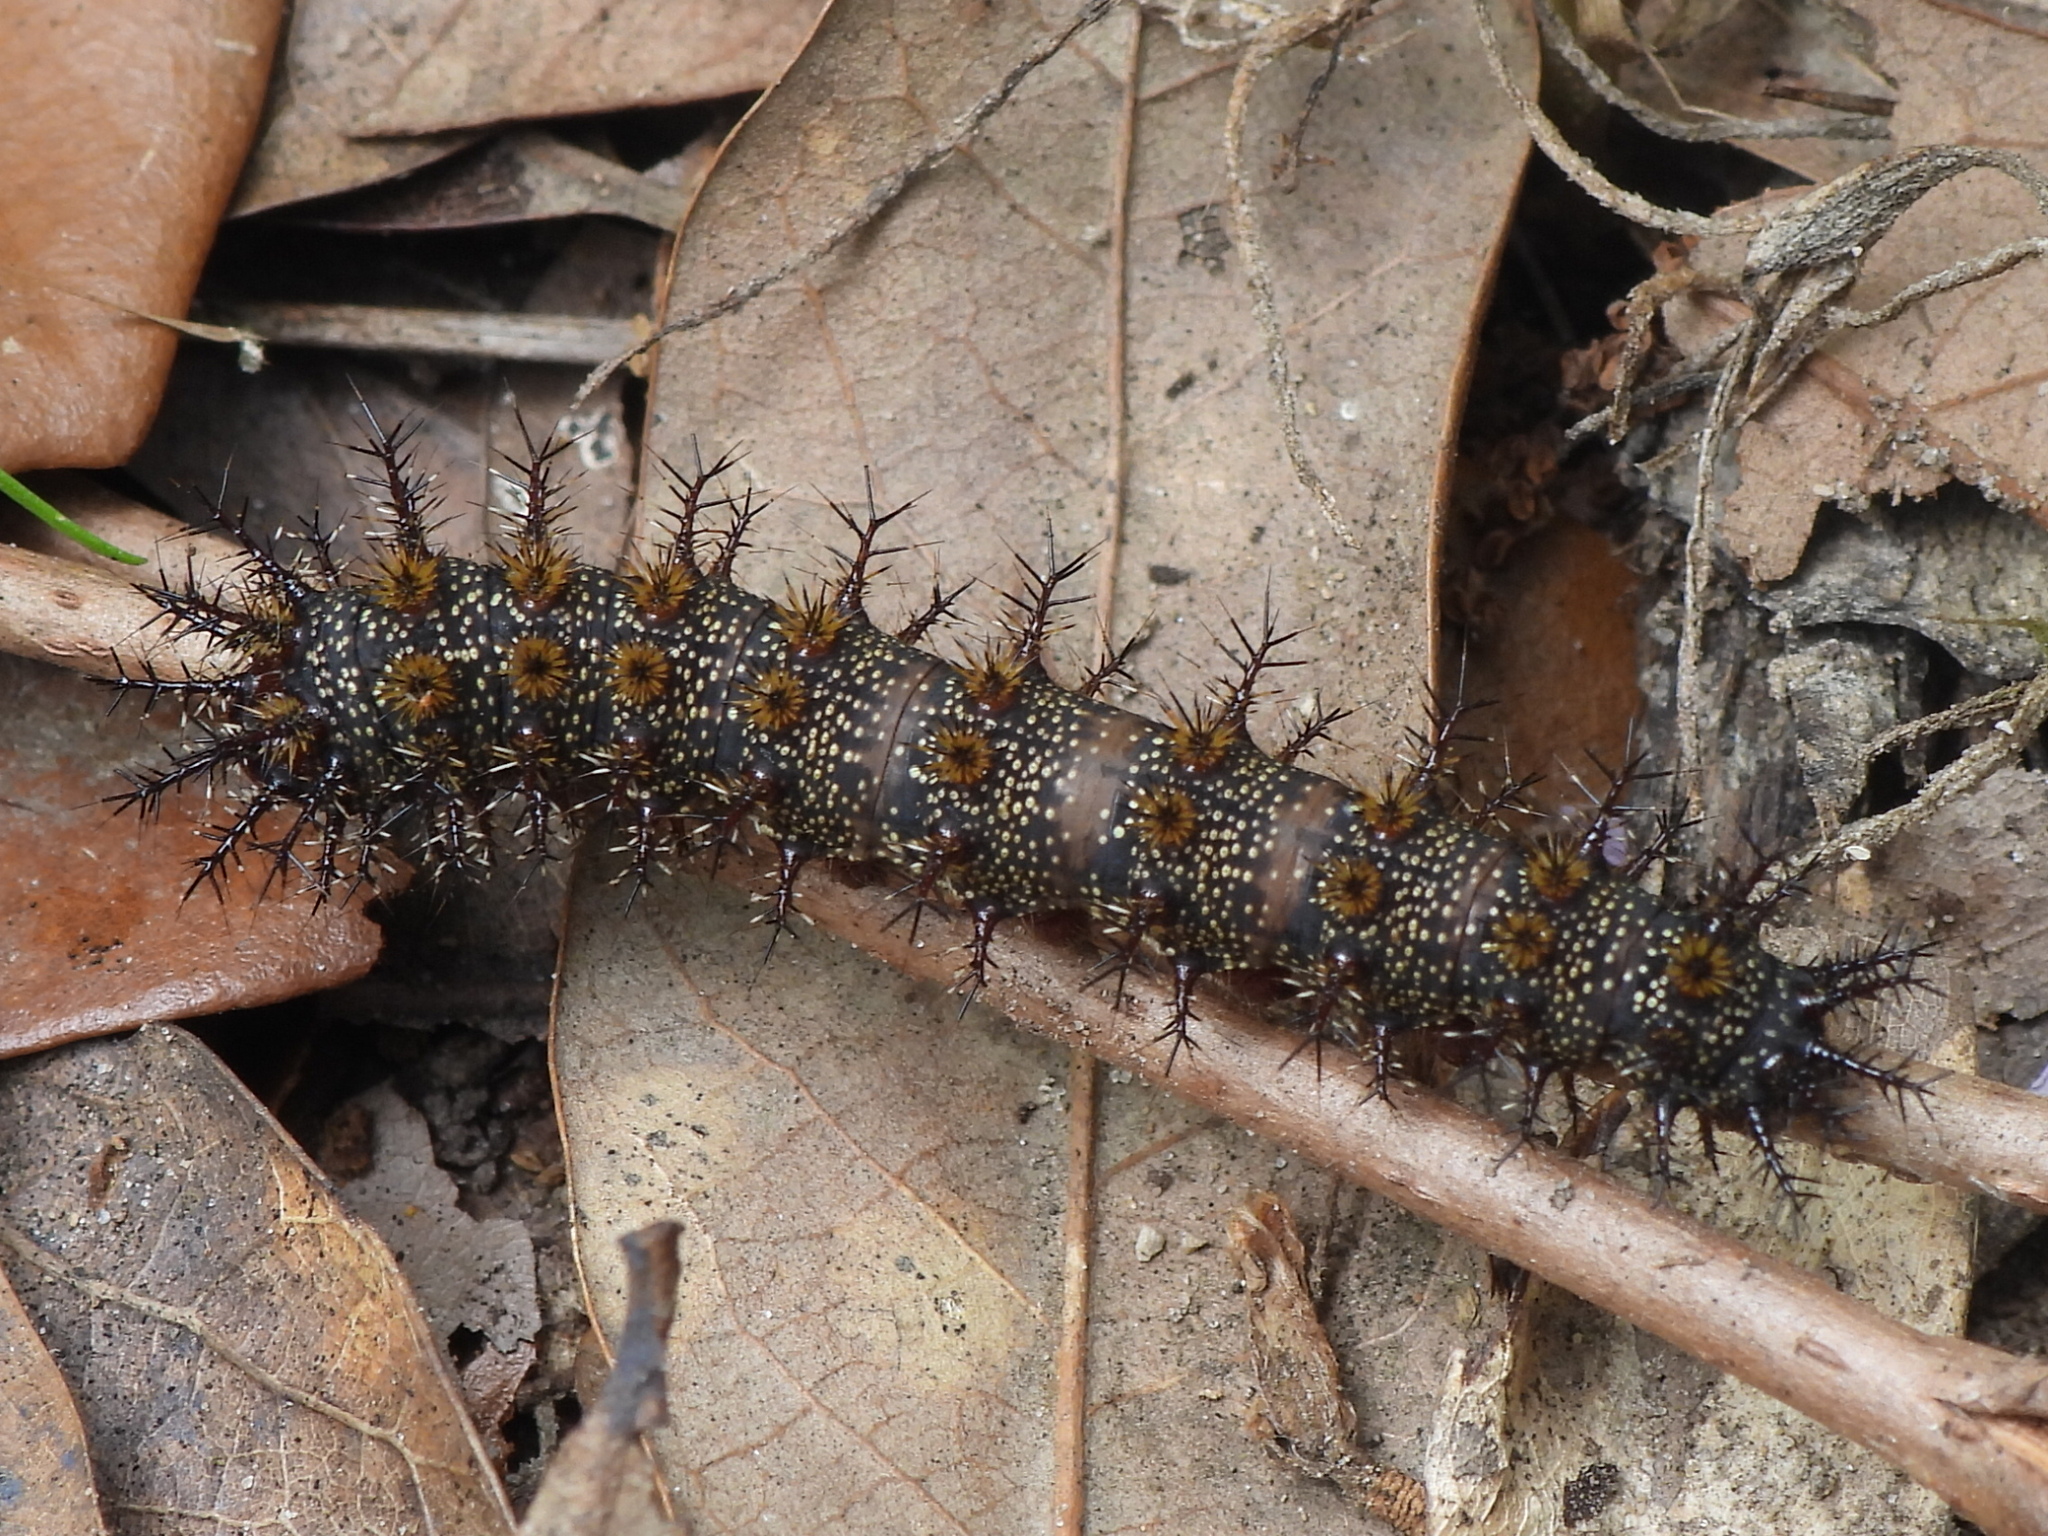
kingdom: Animalia
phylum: Arthropoda
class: Insecta
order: Lepidoptera
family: Saturniidae
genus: Hemileuca
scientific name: Hemileuca maia
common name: Eastern buckmoth
